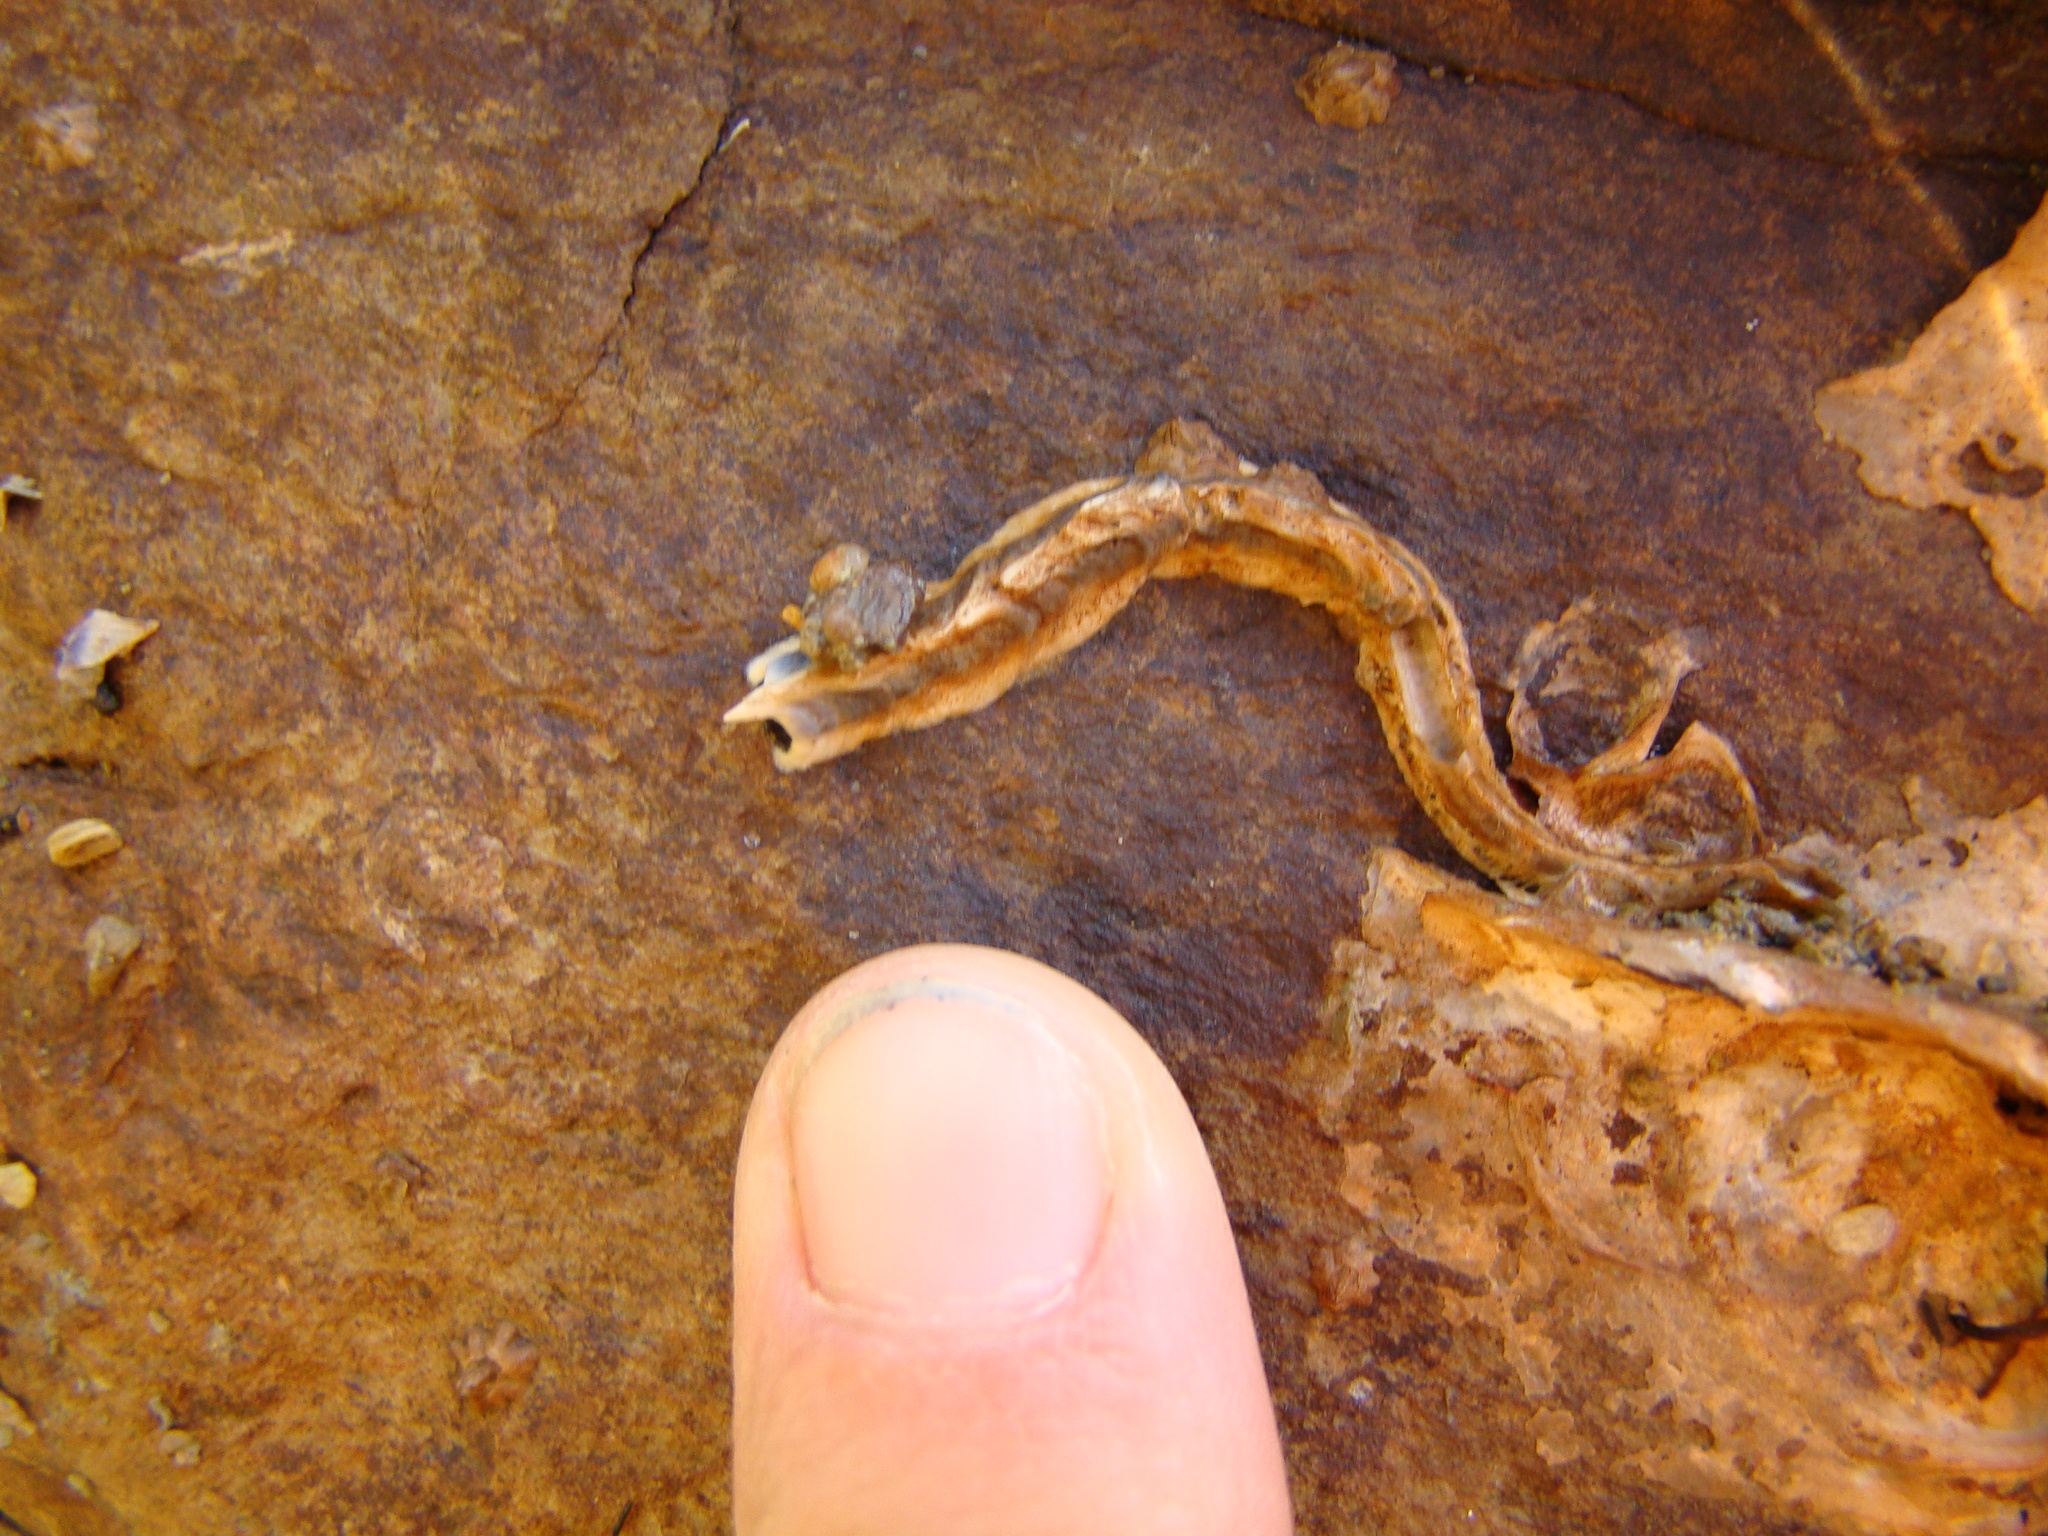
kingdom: Animalia
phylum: Annelida
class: Polychaeta
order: Sabellida
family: Serpulidae
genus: Spirobranchus
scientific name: Spirobranchus cariniferus
